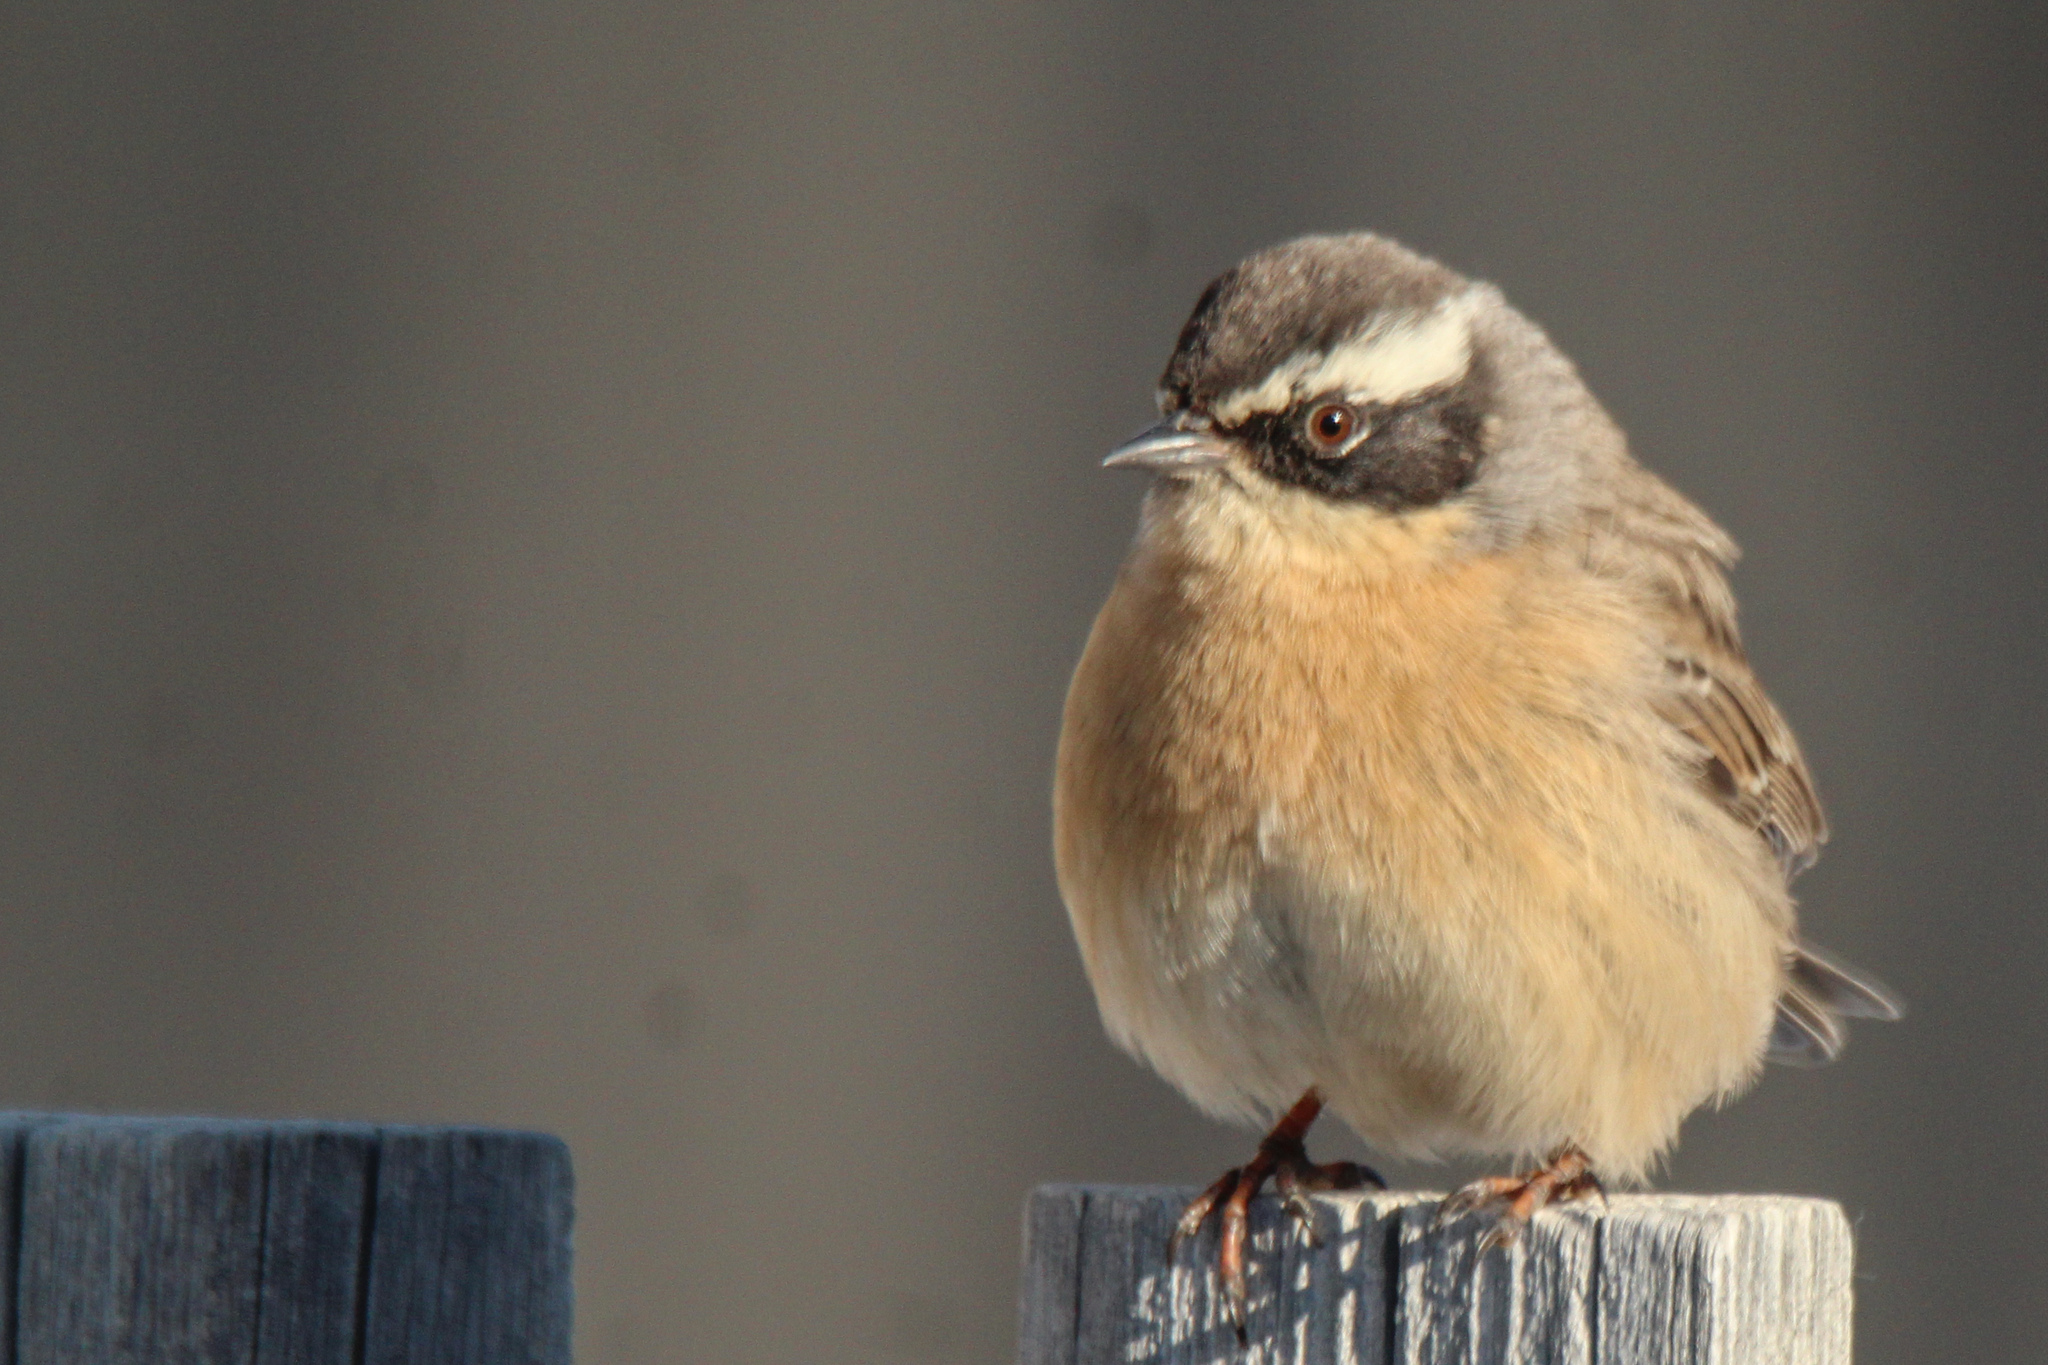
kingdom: Animalia
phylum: Chordata
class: Aves
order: Passeriformes
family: Prunellidae
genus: Prunella
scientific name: Prunella fulvescens
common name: Brown accentor
